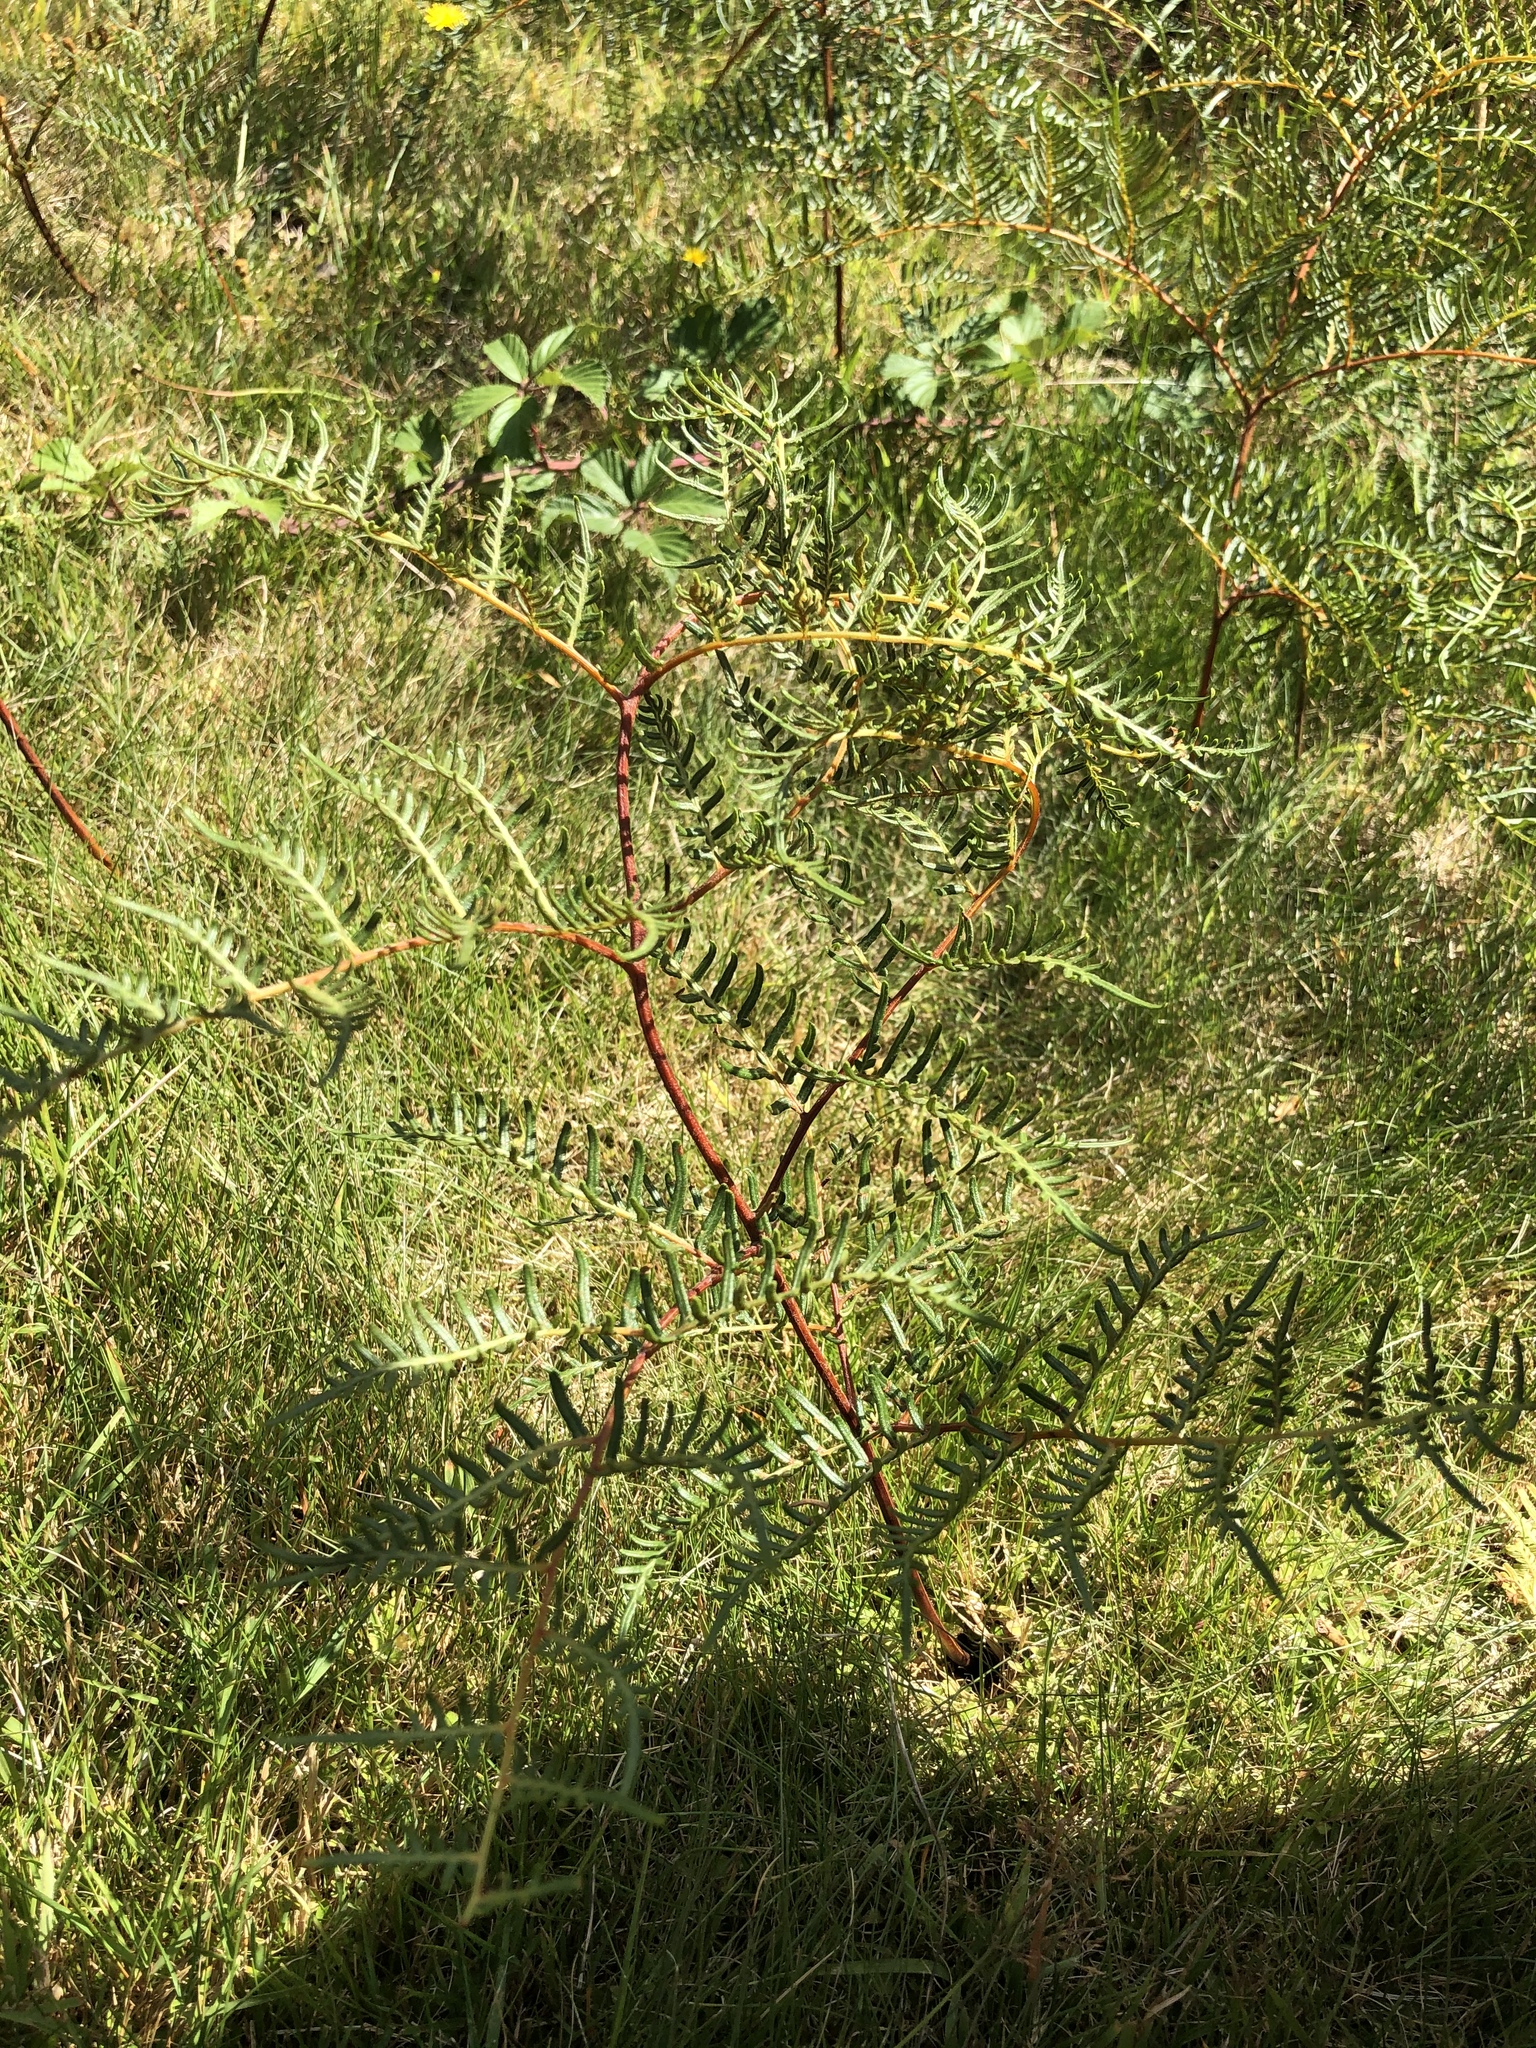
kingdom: Plantae
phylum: Tracheophyta
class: Polypodiopsida
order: Polypodiales
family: Dennstaedtiaceae
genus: Pteridium
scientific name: Pteridium esculentum
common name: Bracken fern
